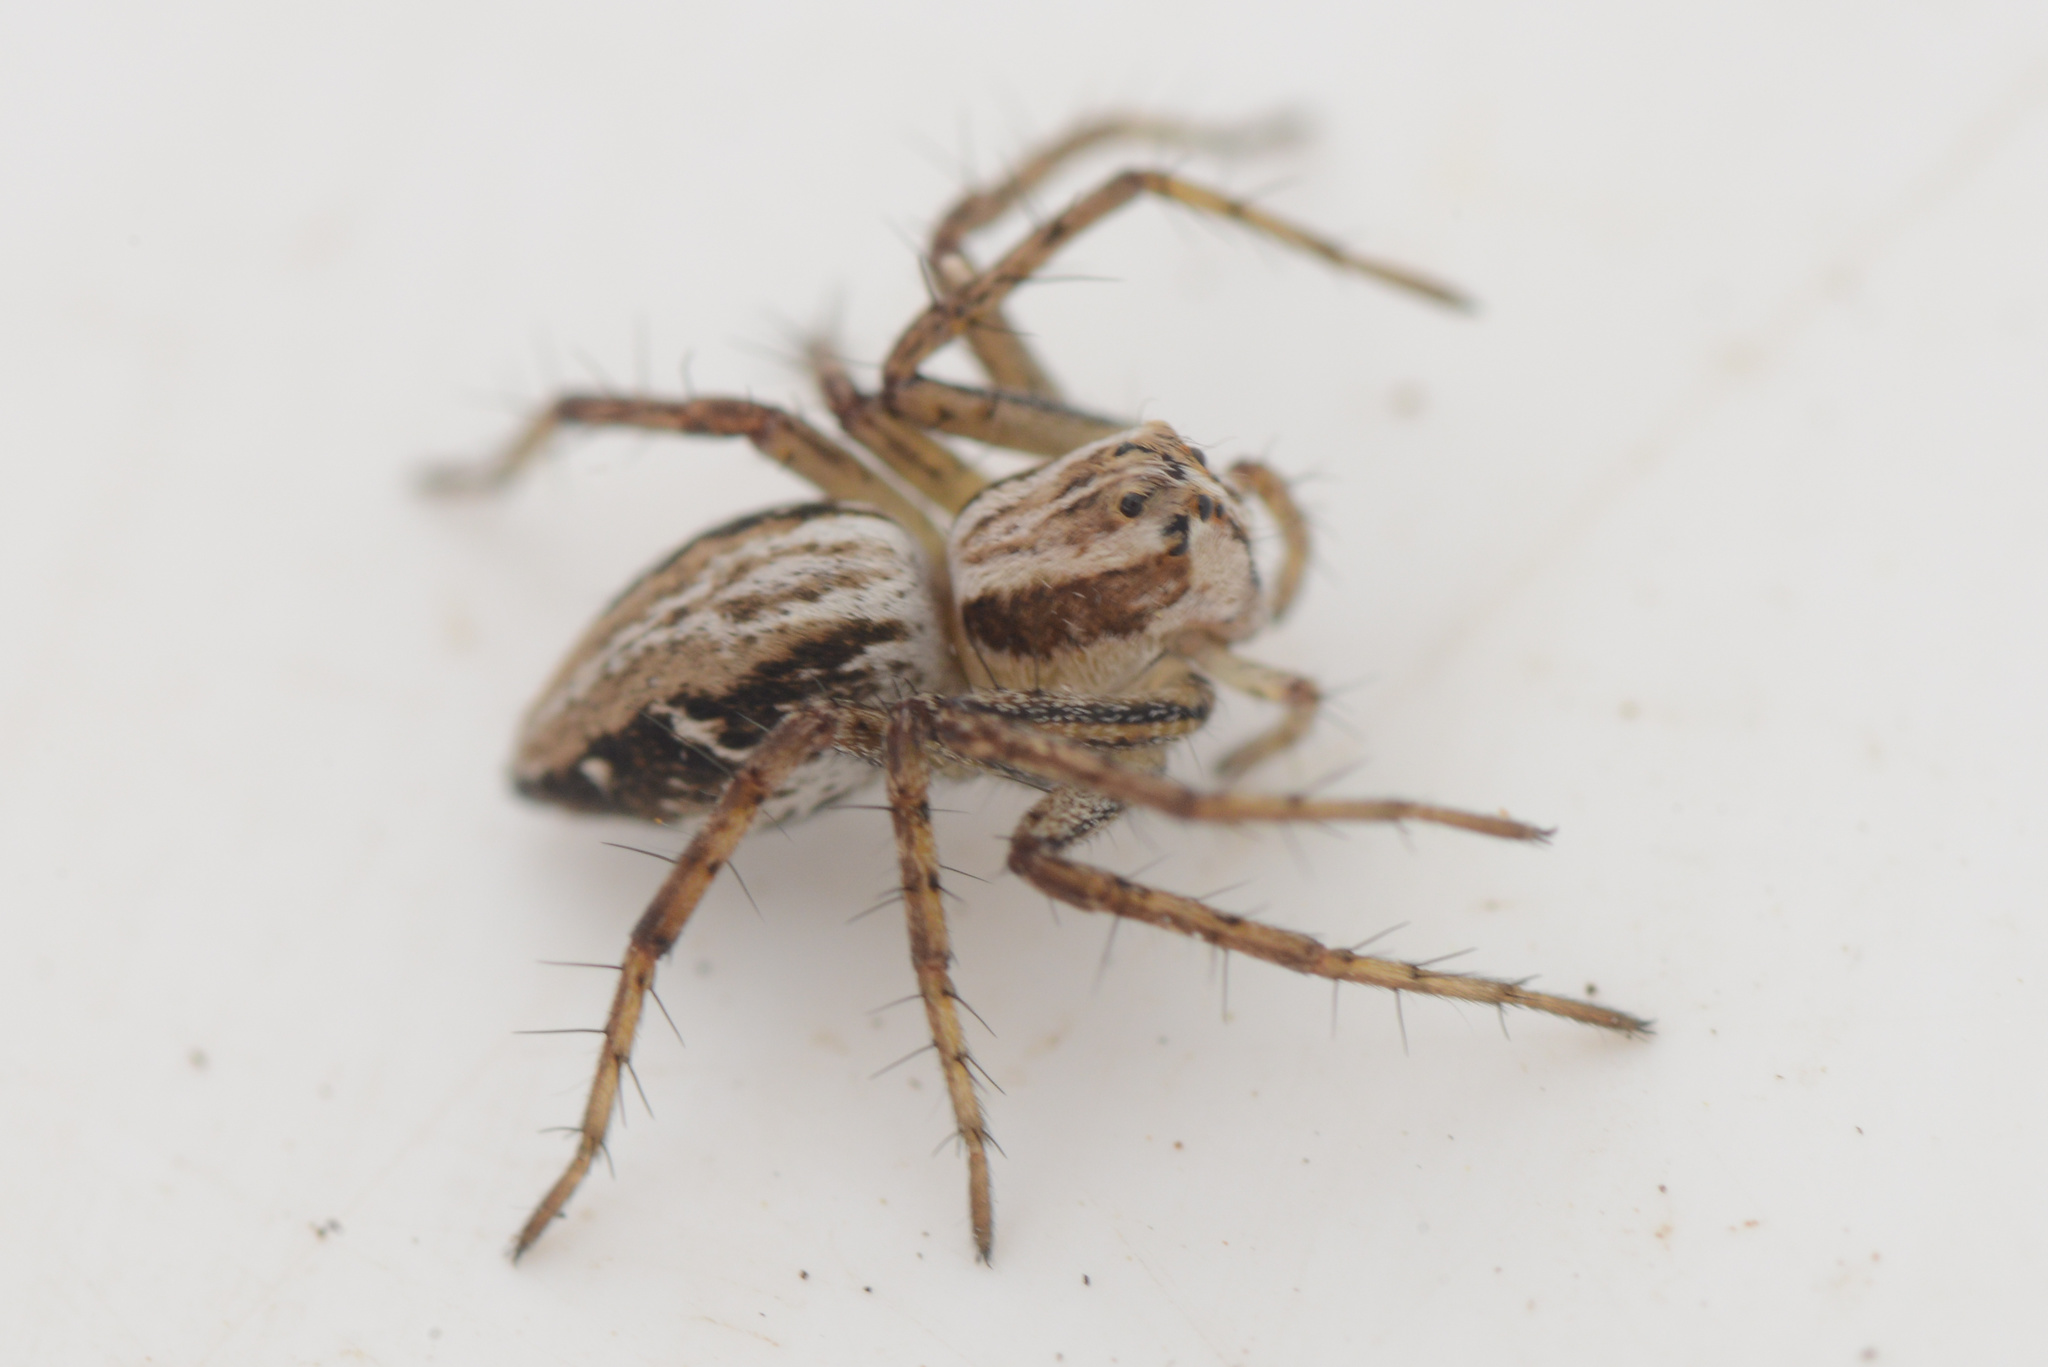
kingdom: Animalia
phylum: Arthropoda
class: Arachnida
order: Araneae
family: Oxyopidae
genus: Oxyopes
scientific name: Oxyopes gracilipes
